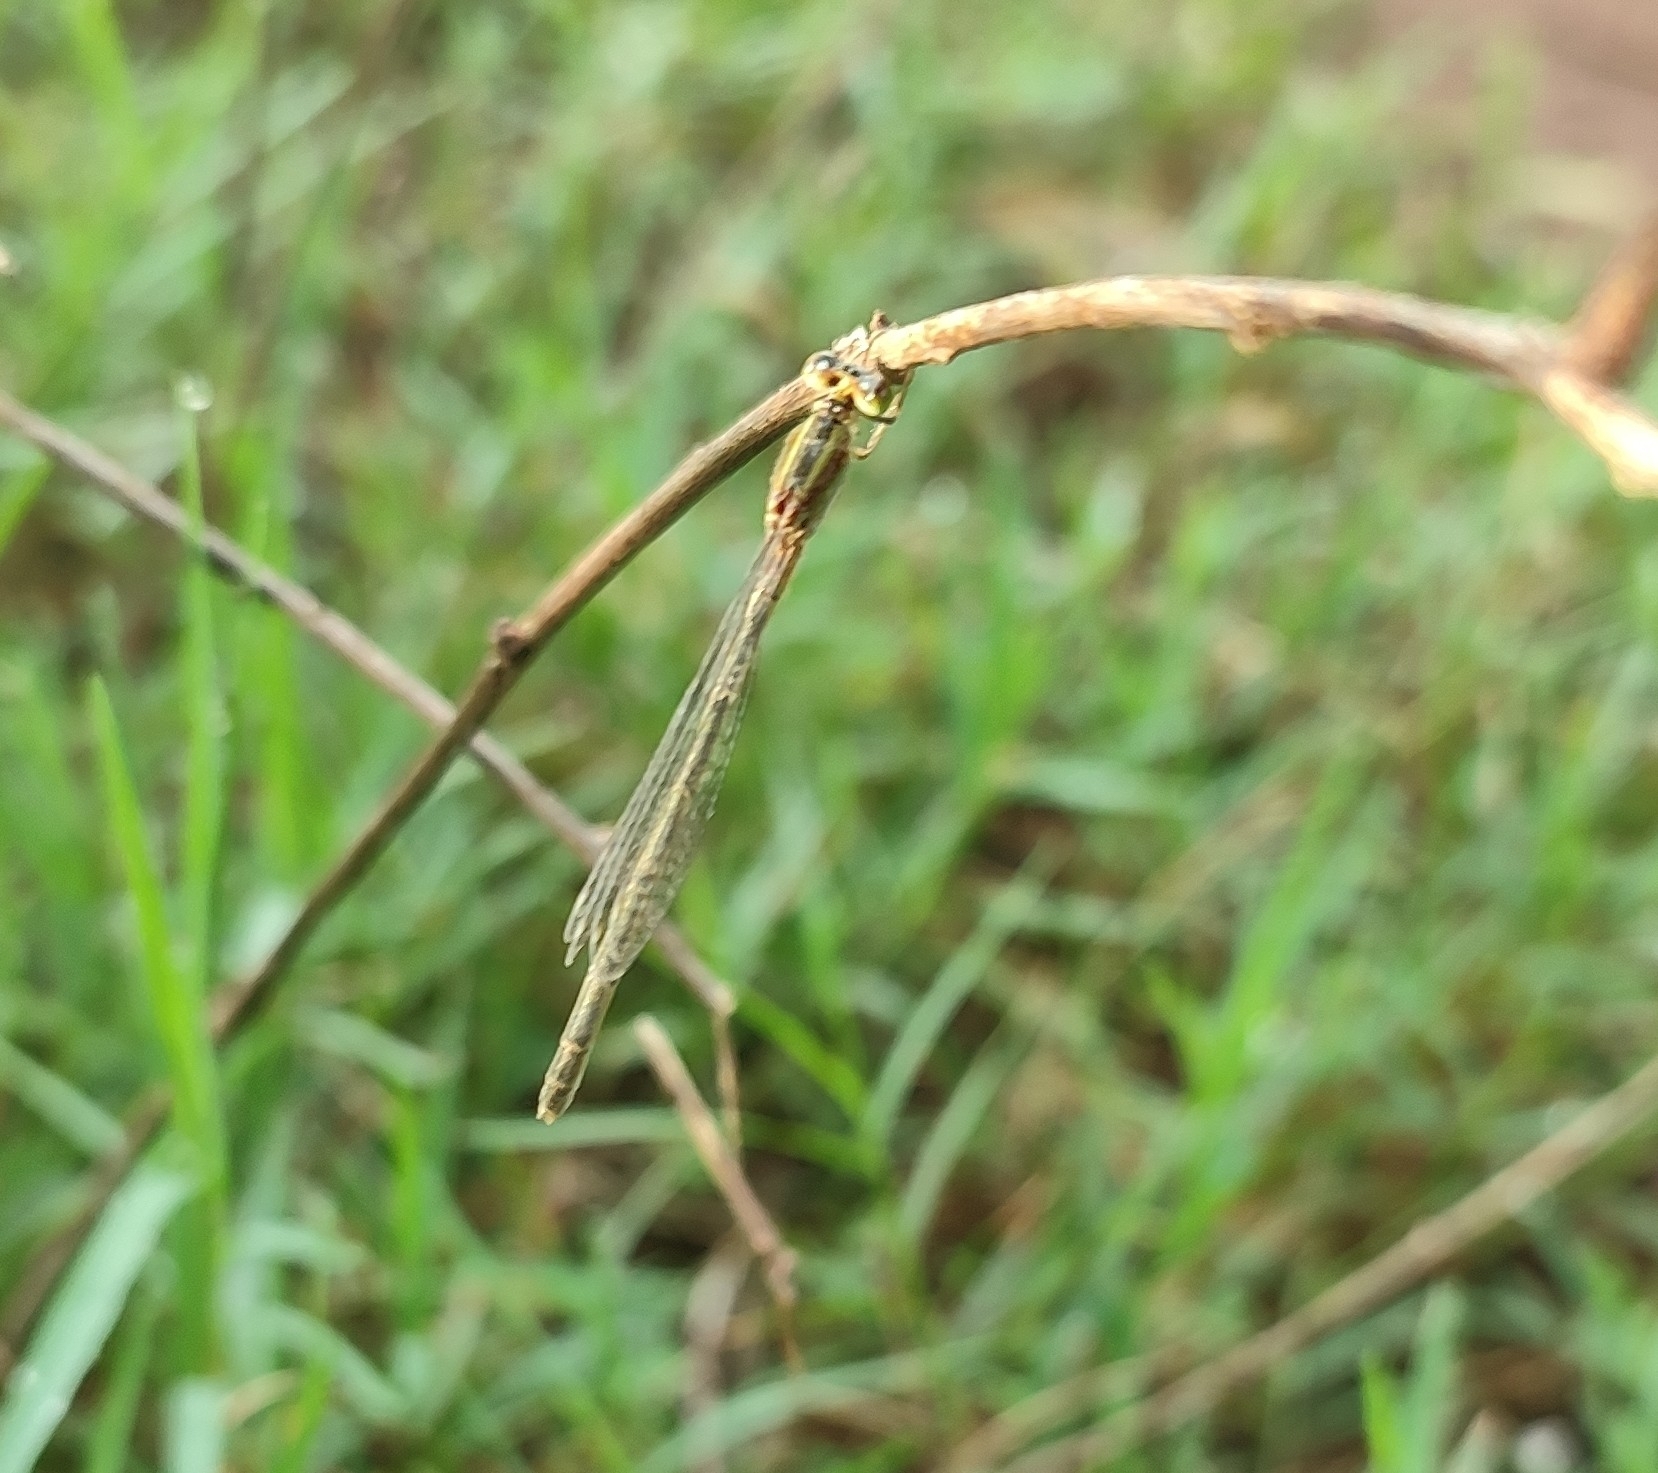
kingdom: Animalia
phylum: Arthropoda
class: Insecta
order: Odonata
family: Coenagrionidae
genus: Ischnura
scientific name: Ischnura senegalensis
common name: Tropical bluetail
